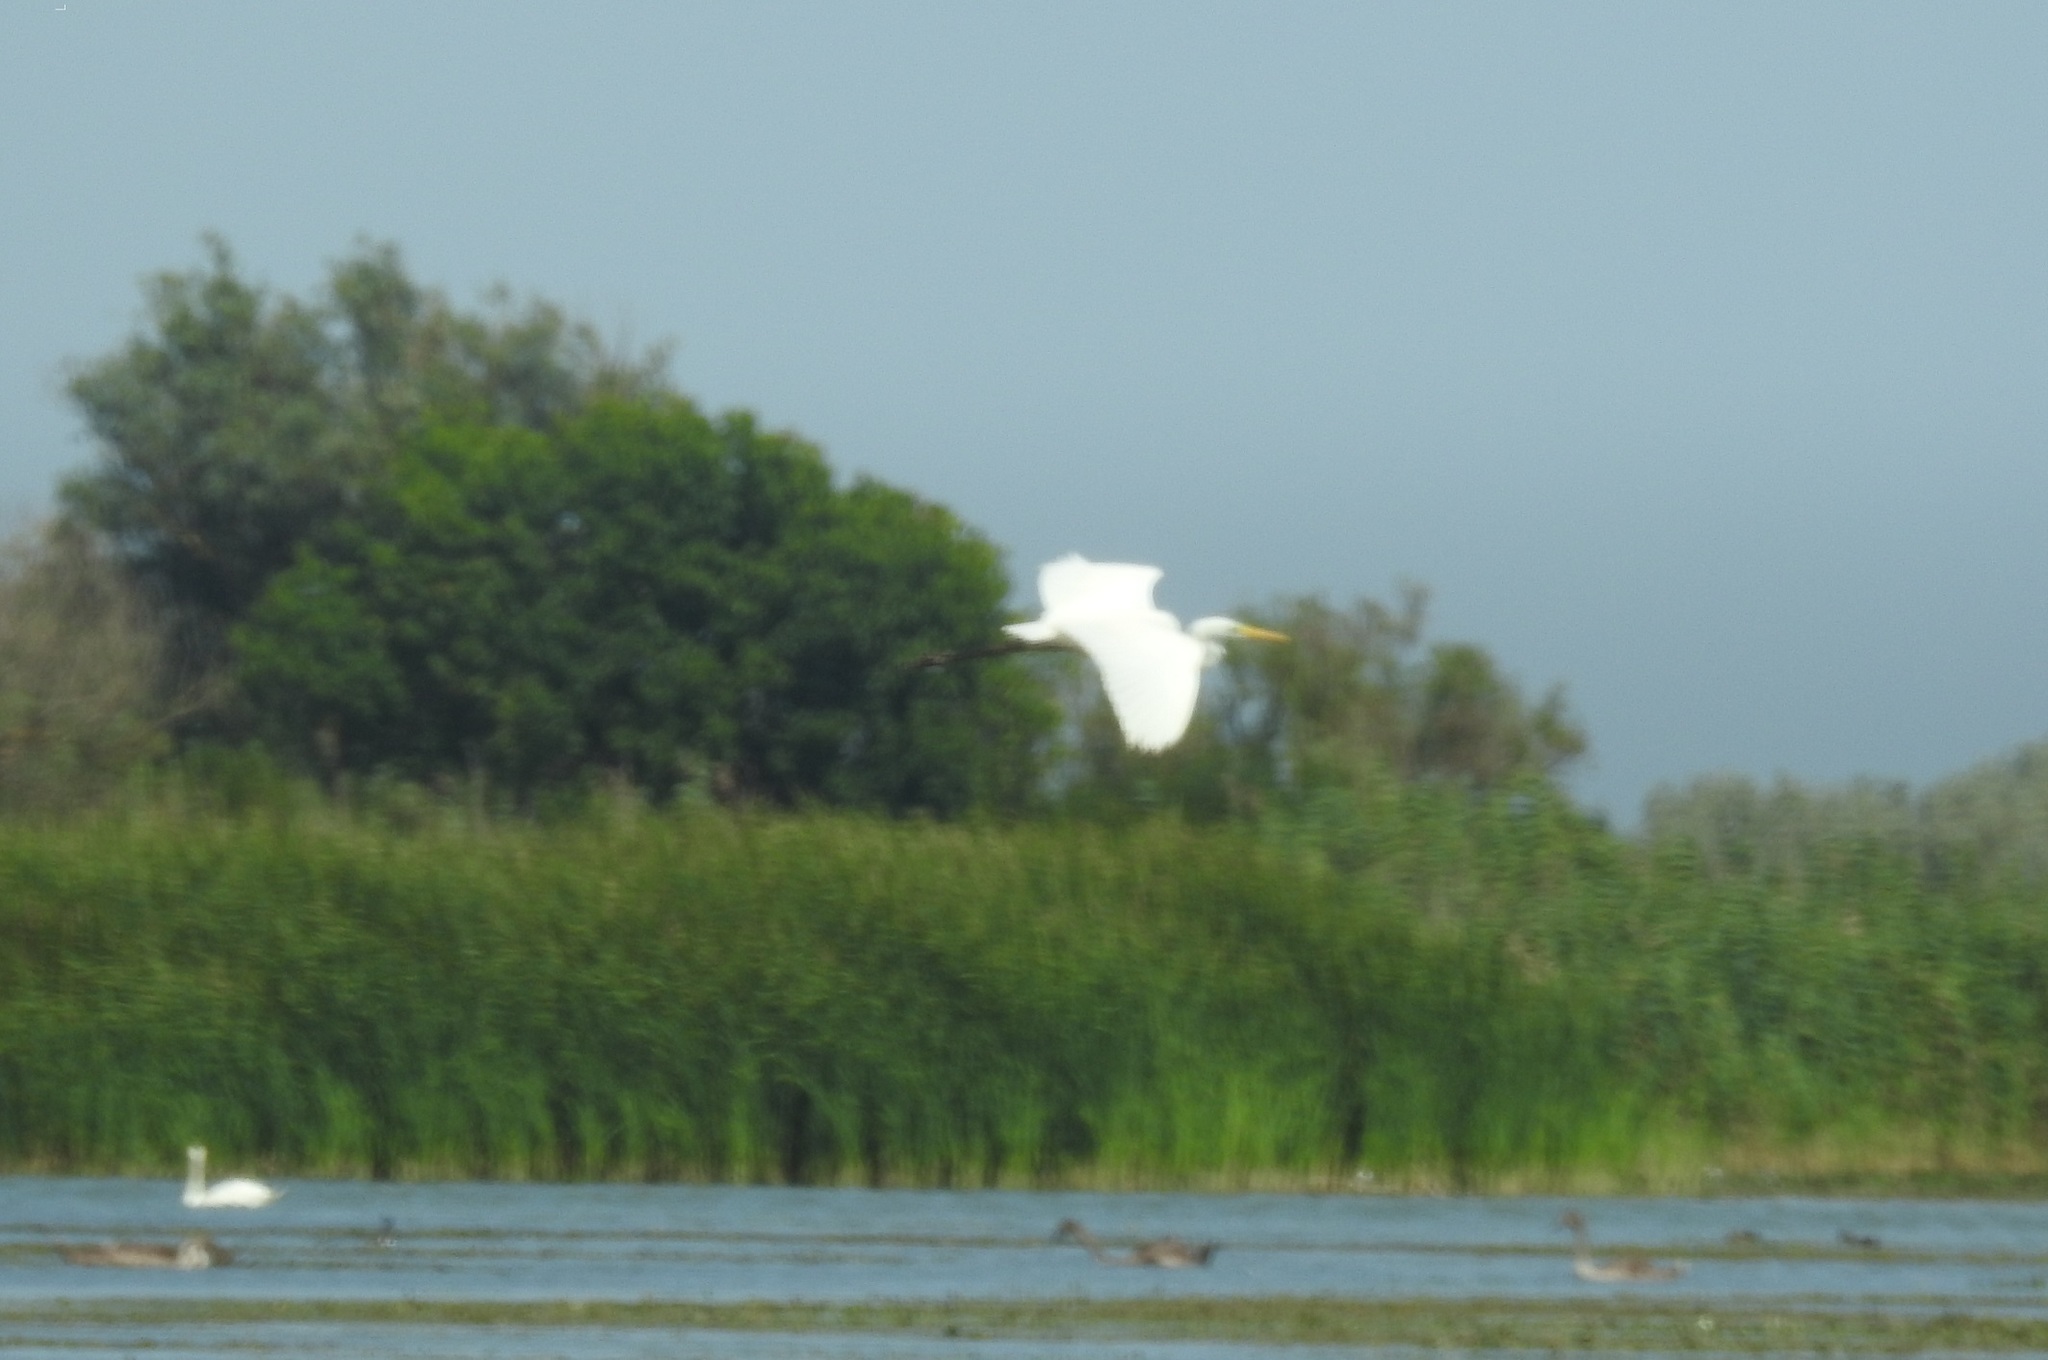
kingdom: Animalia
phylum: Chordata
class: Aves
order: Pelecaniformes
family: Ardeidae
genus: Ardea
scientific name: Ardea alba
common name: Great egret
